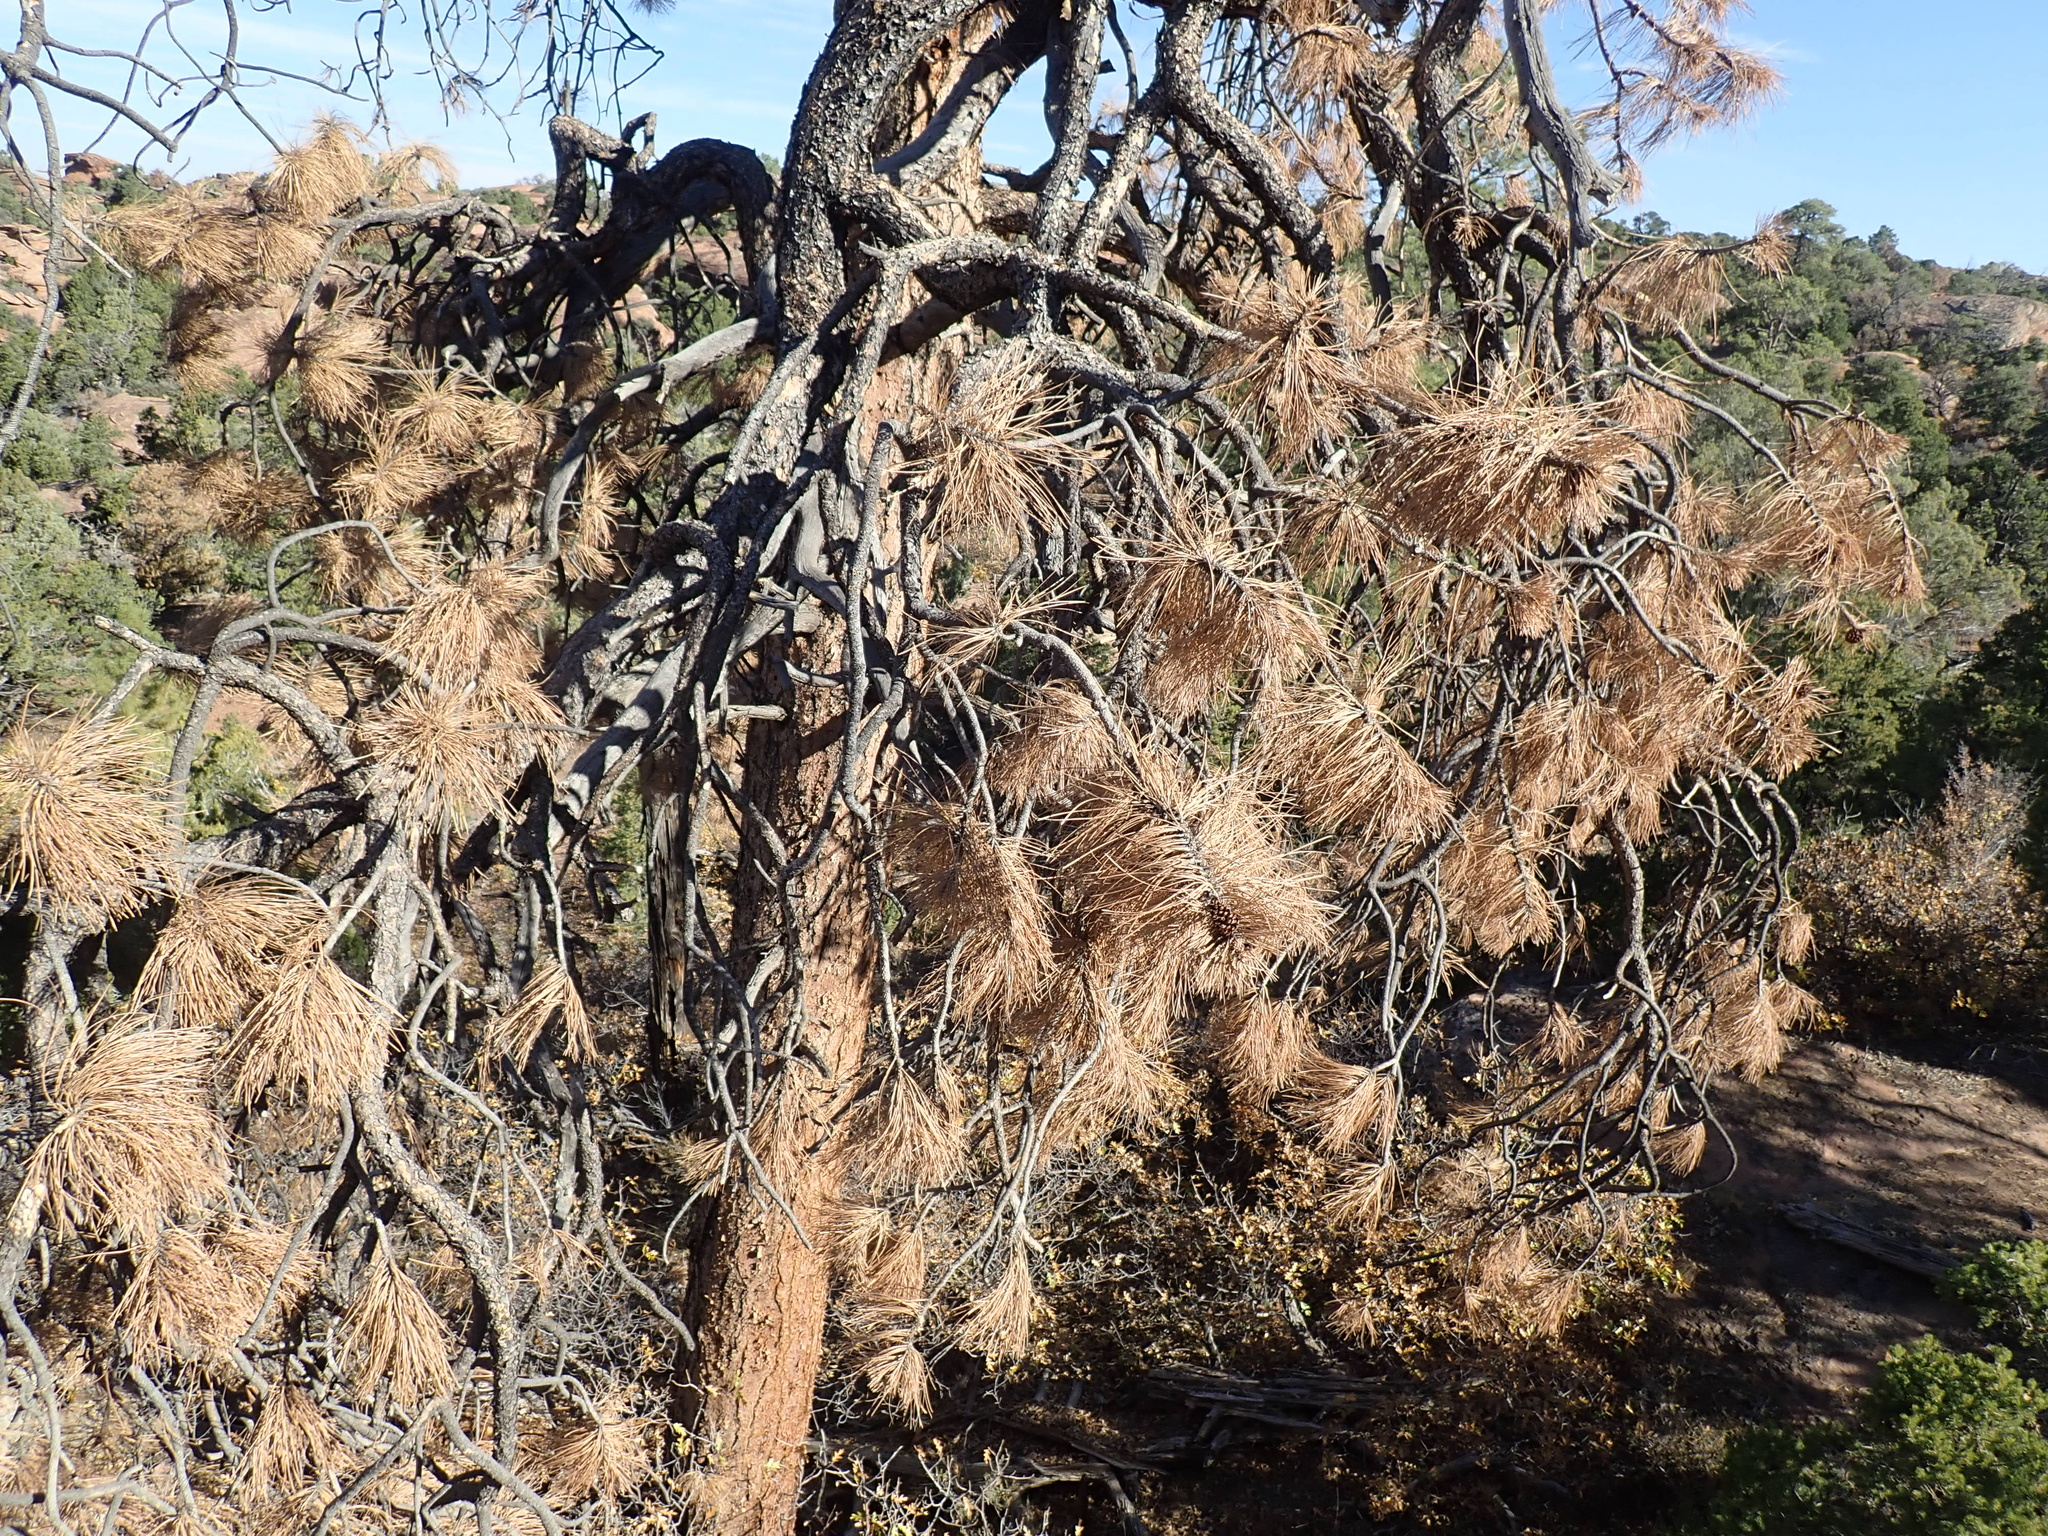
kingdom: Plantae
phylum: Tracheophyta
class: Pinopsida
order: Pinales
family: Pinaceae
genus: Pinus
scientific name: Pinus ponderosa
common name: Western yellow-pine
